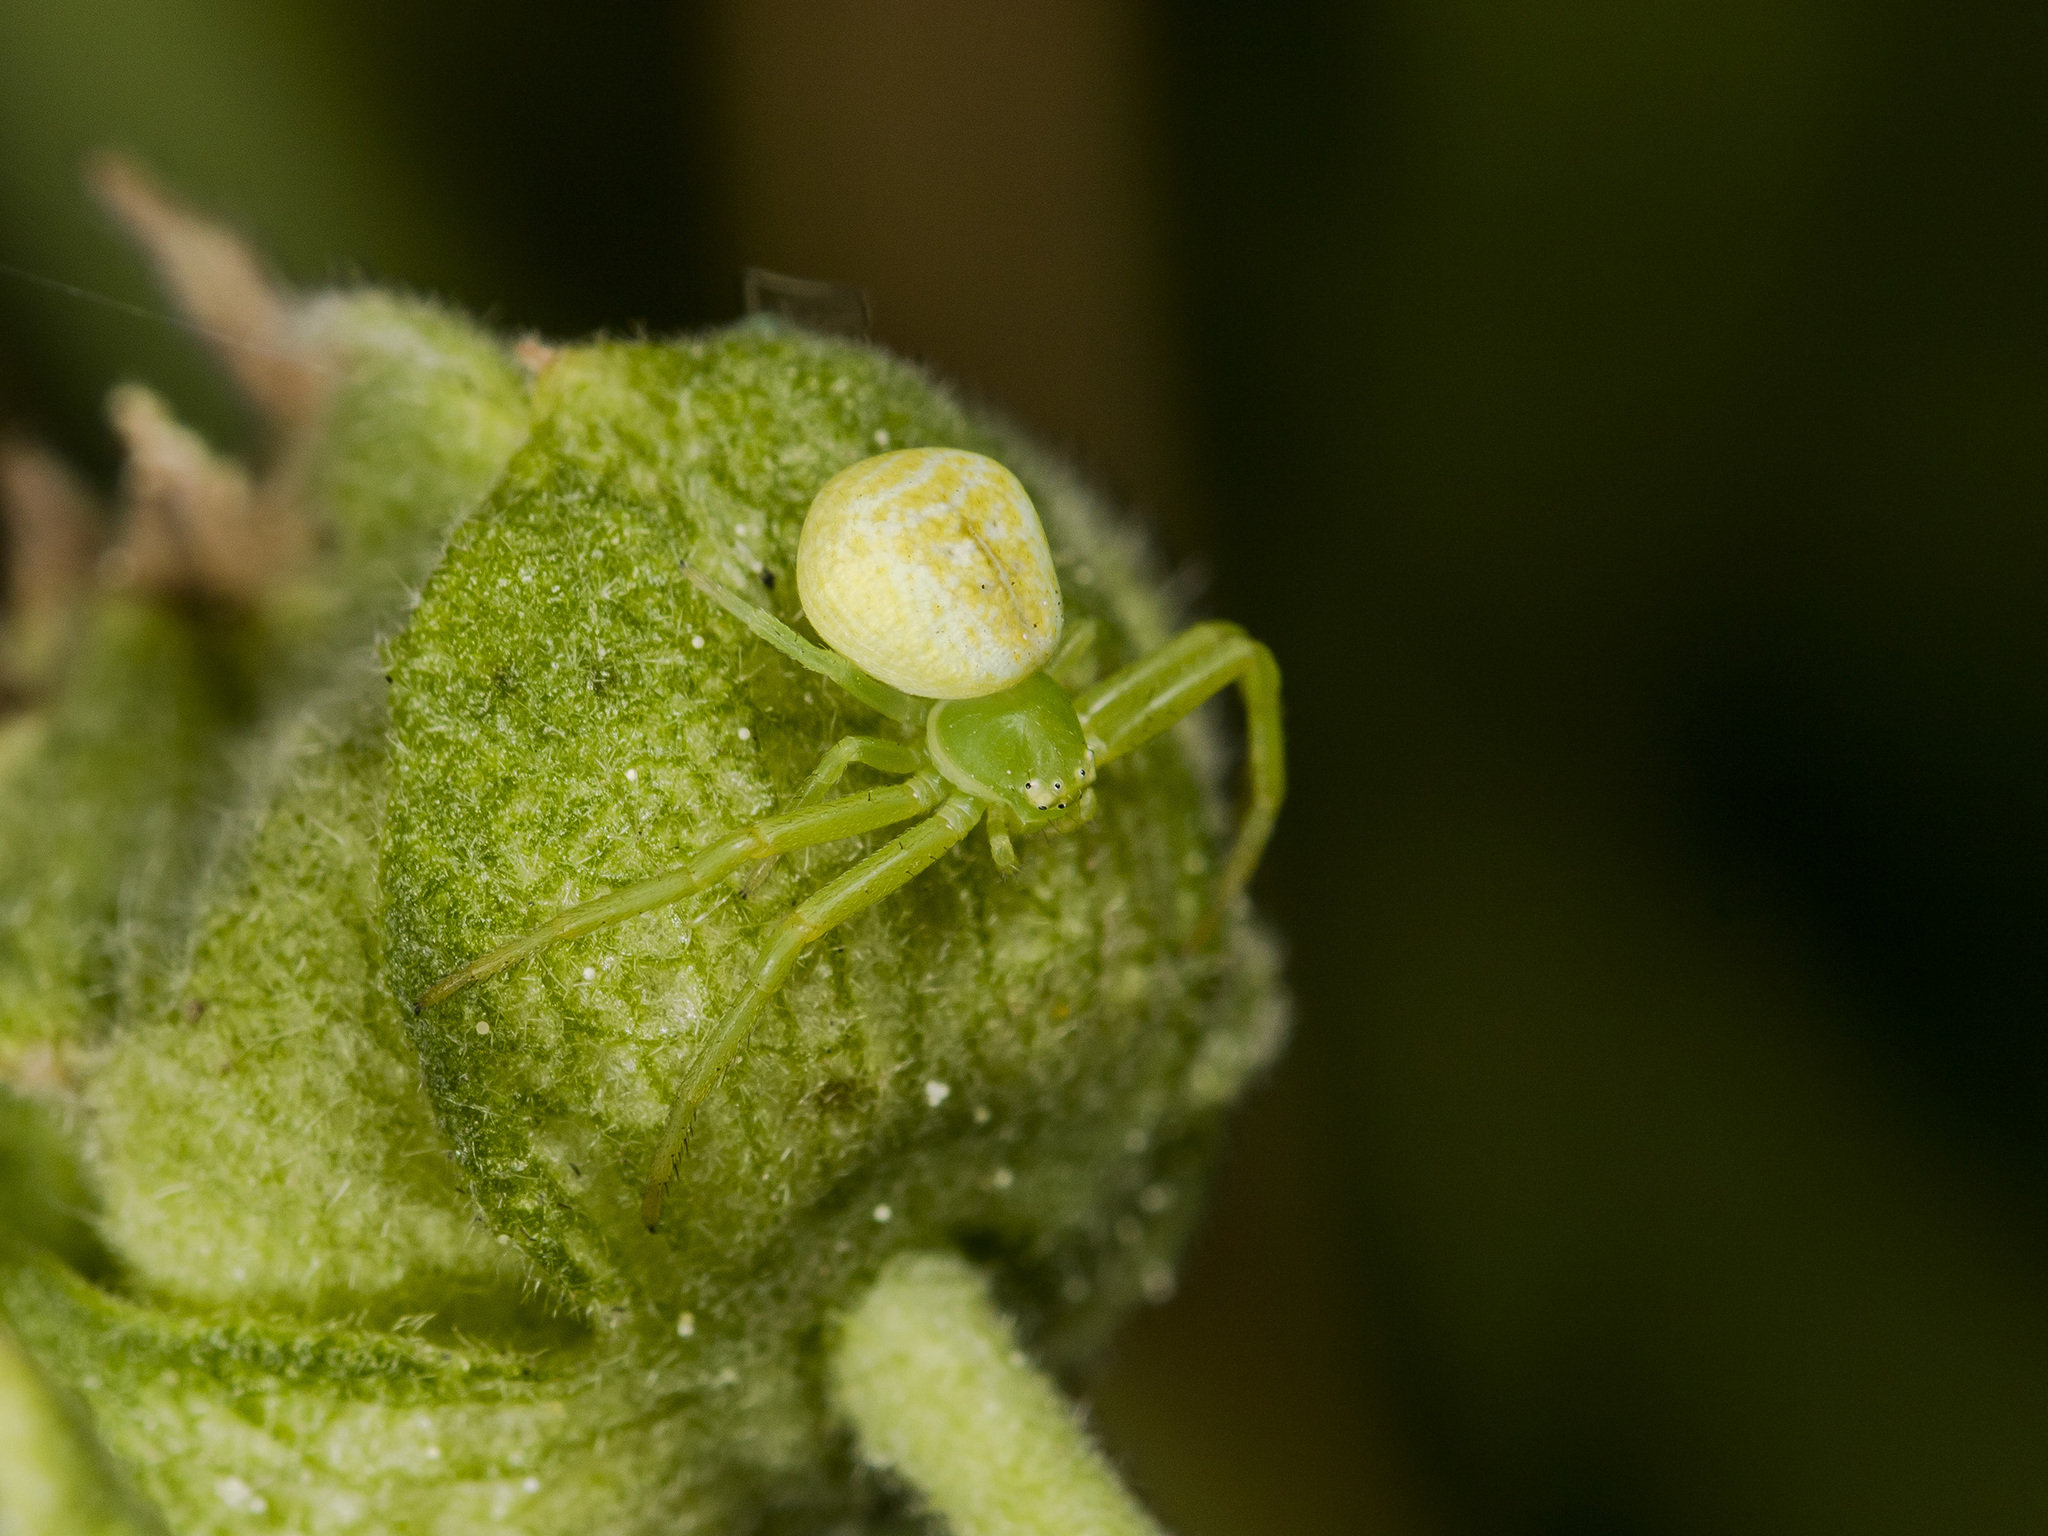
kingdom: Animalia
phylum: Arthropoda
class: Arachnida
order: Araneae
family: Thomisidae
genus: Ebrechtella
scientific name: Ebrechtella tricuspidata
